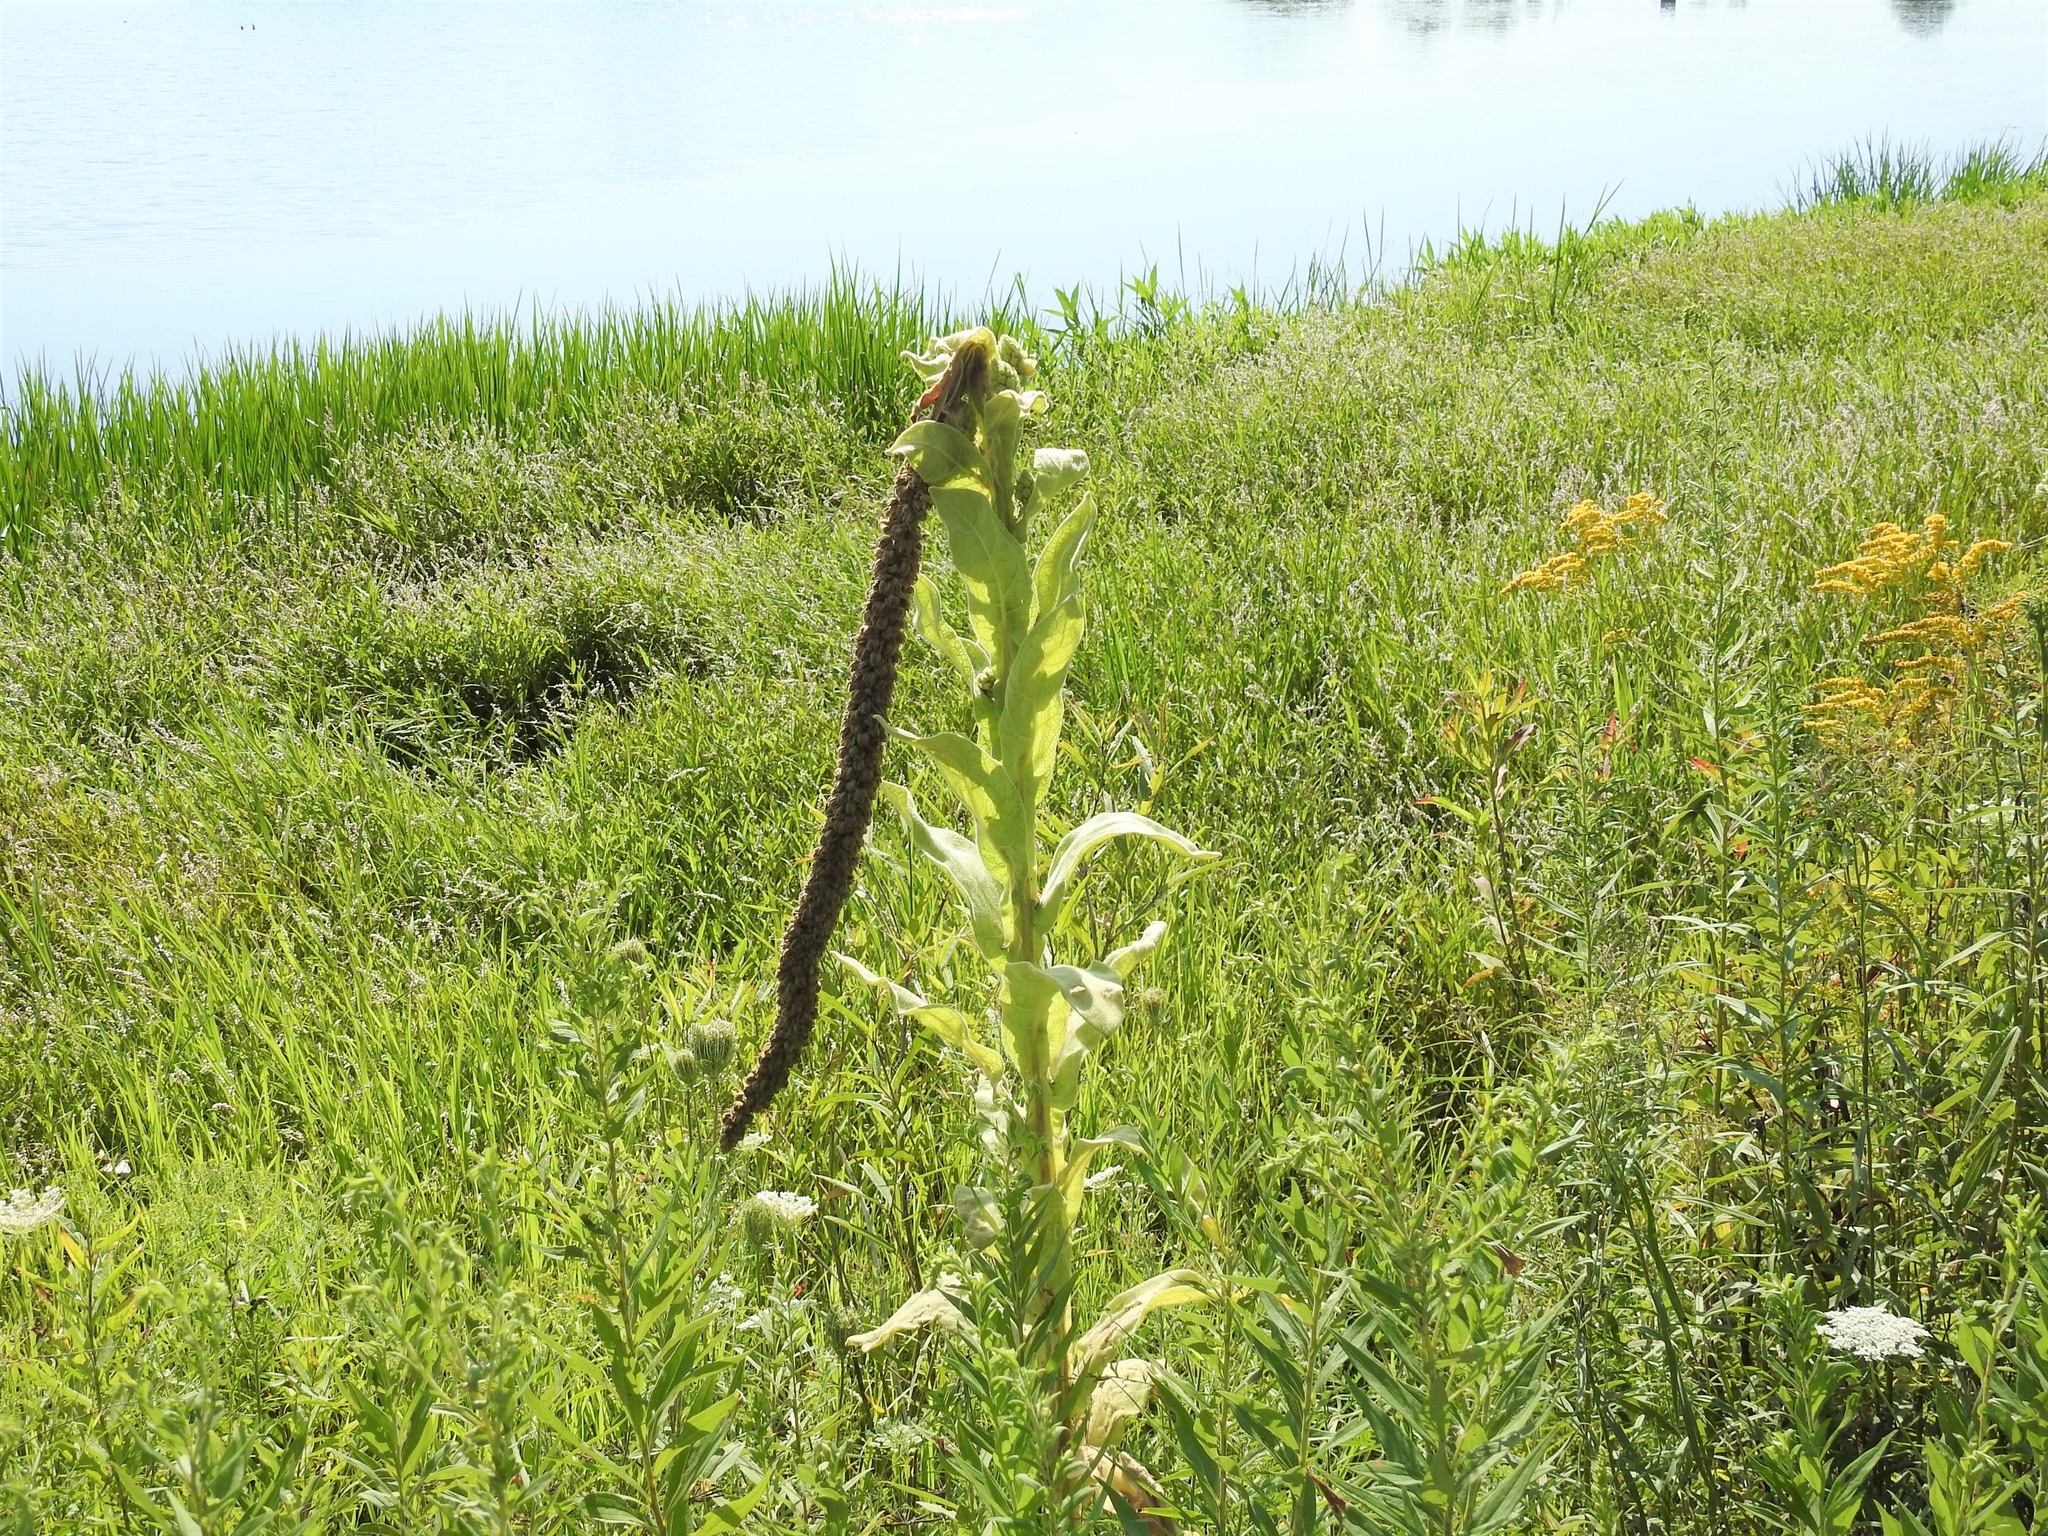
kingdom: Plantae
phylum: Tracheophyta
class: Magnoliopsida
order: Lamiales
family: Scrophulariaceae
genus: Verbascum
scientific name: Verbascum thapsus
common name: Common mullein
